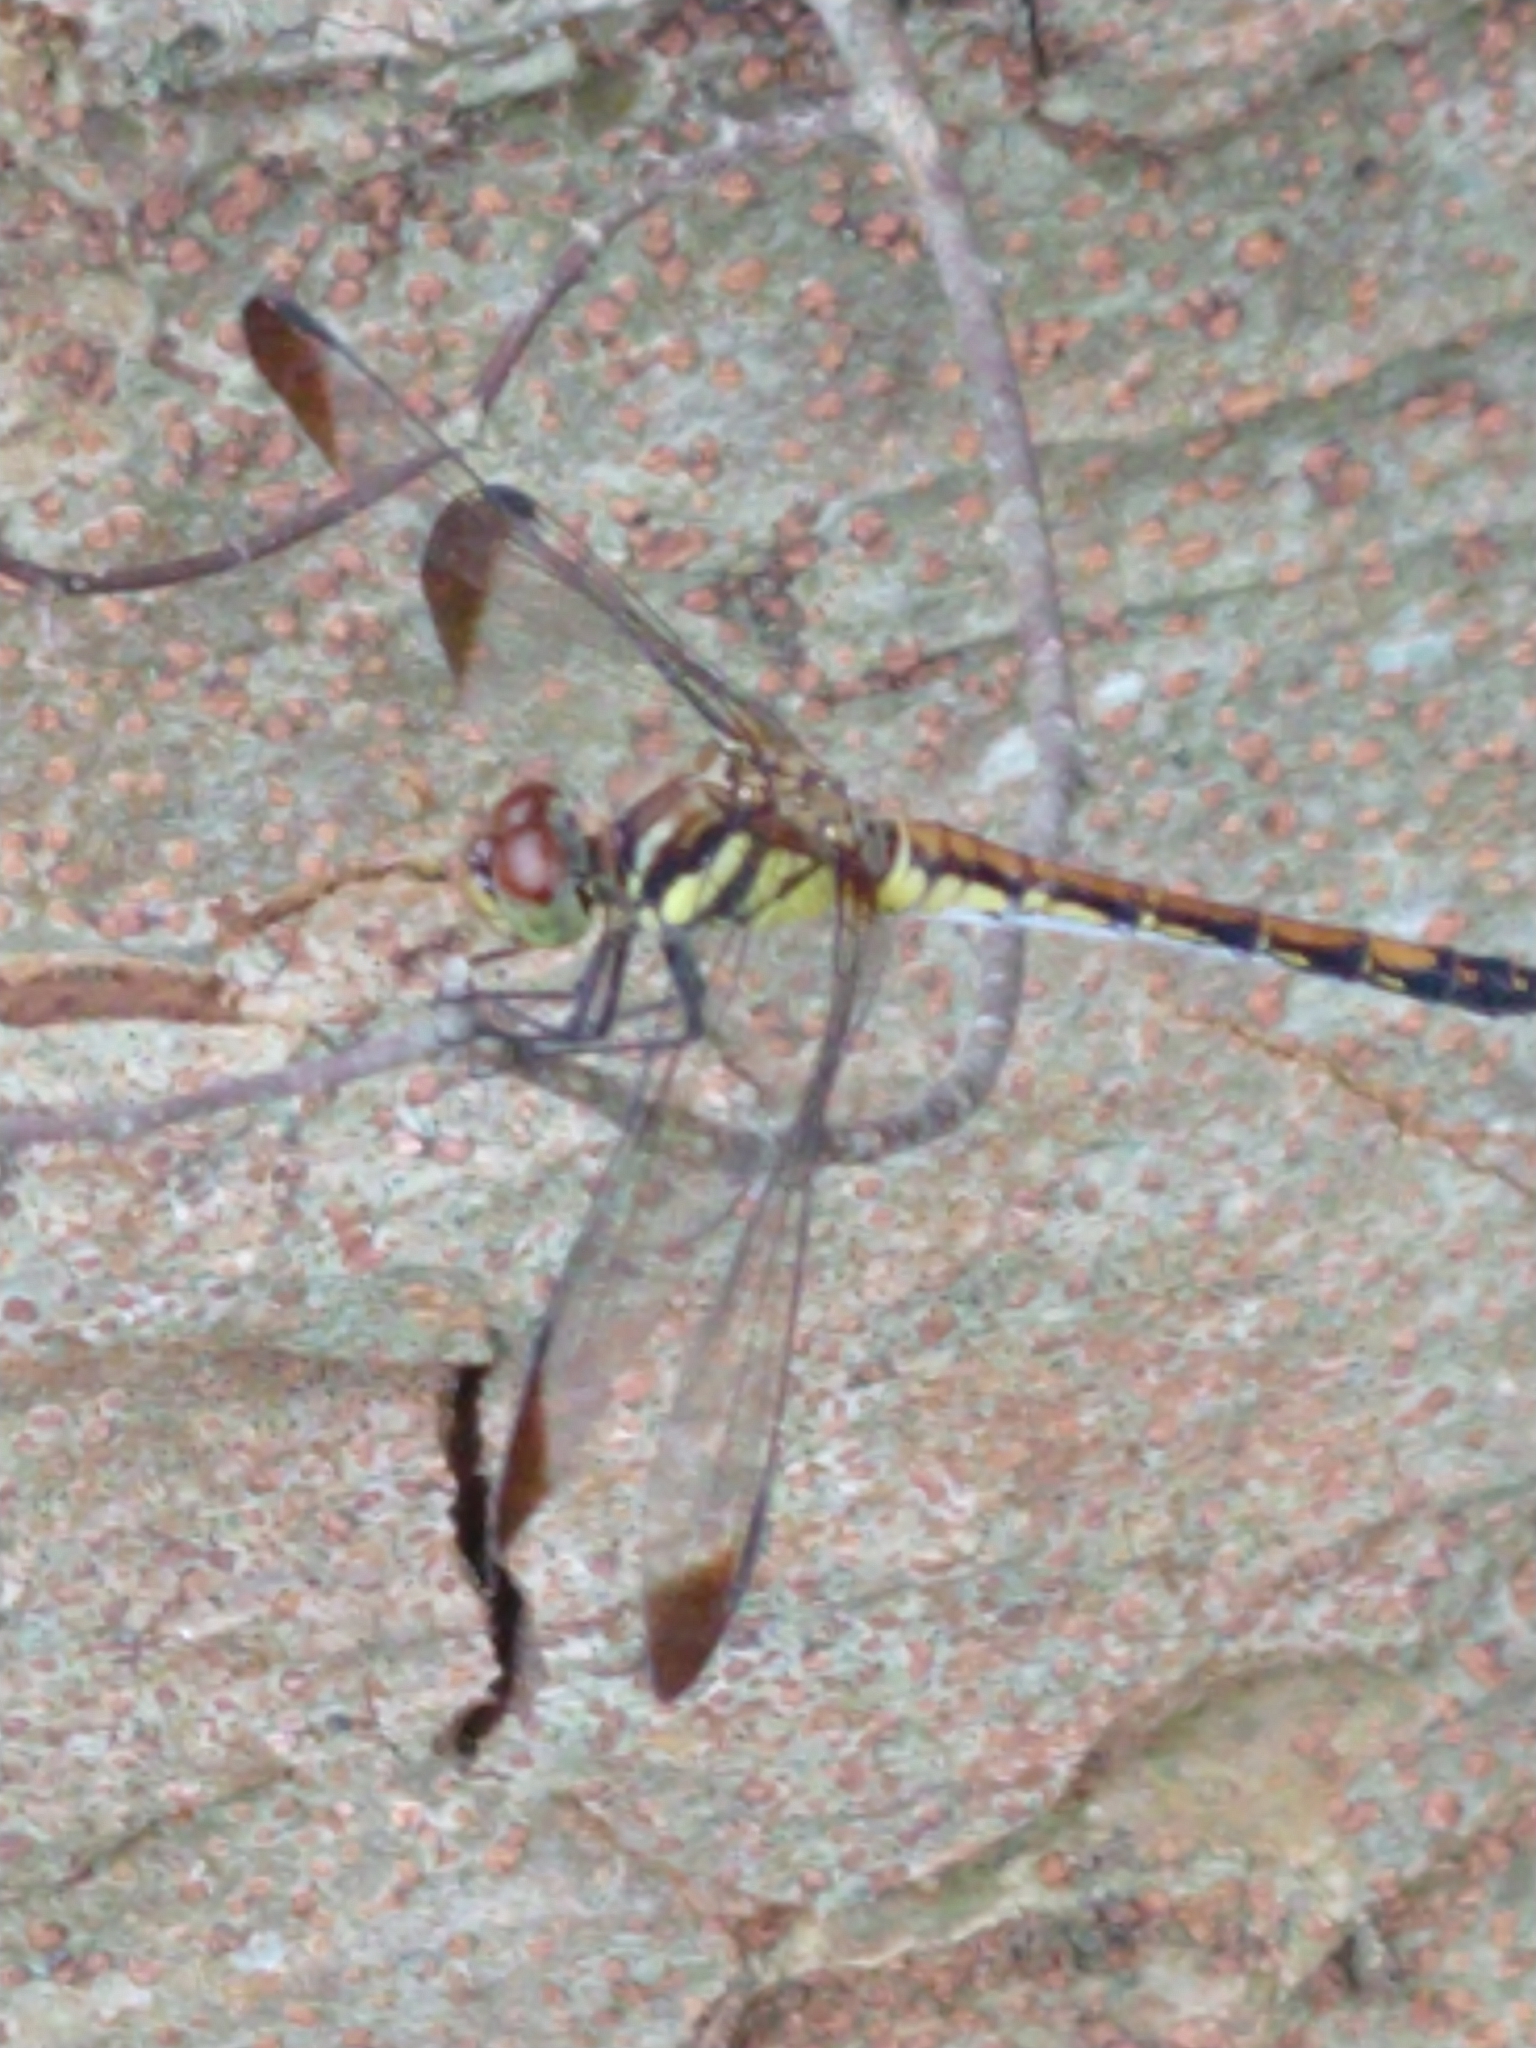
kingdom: Animalia
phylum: Arthropoda
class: Insecta
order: Odonata
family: Libellulidae
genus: Sympetrum
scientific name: Sympetrum infuscatum
